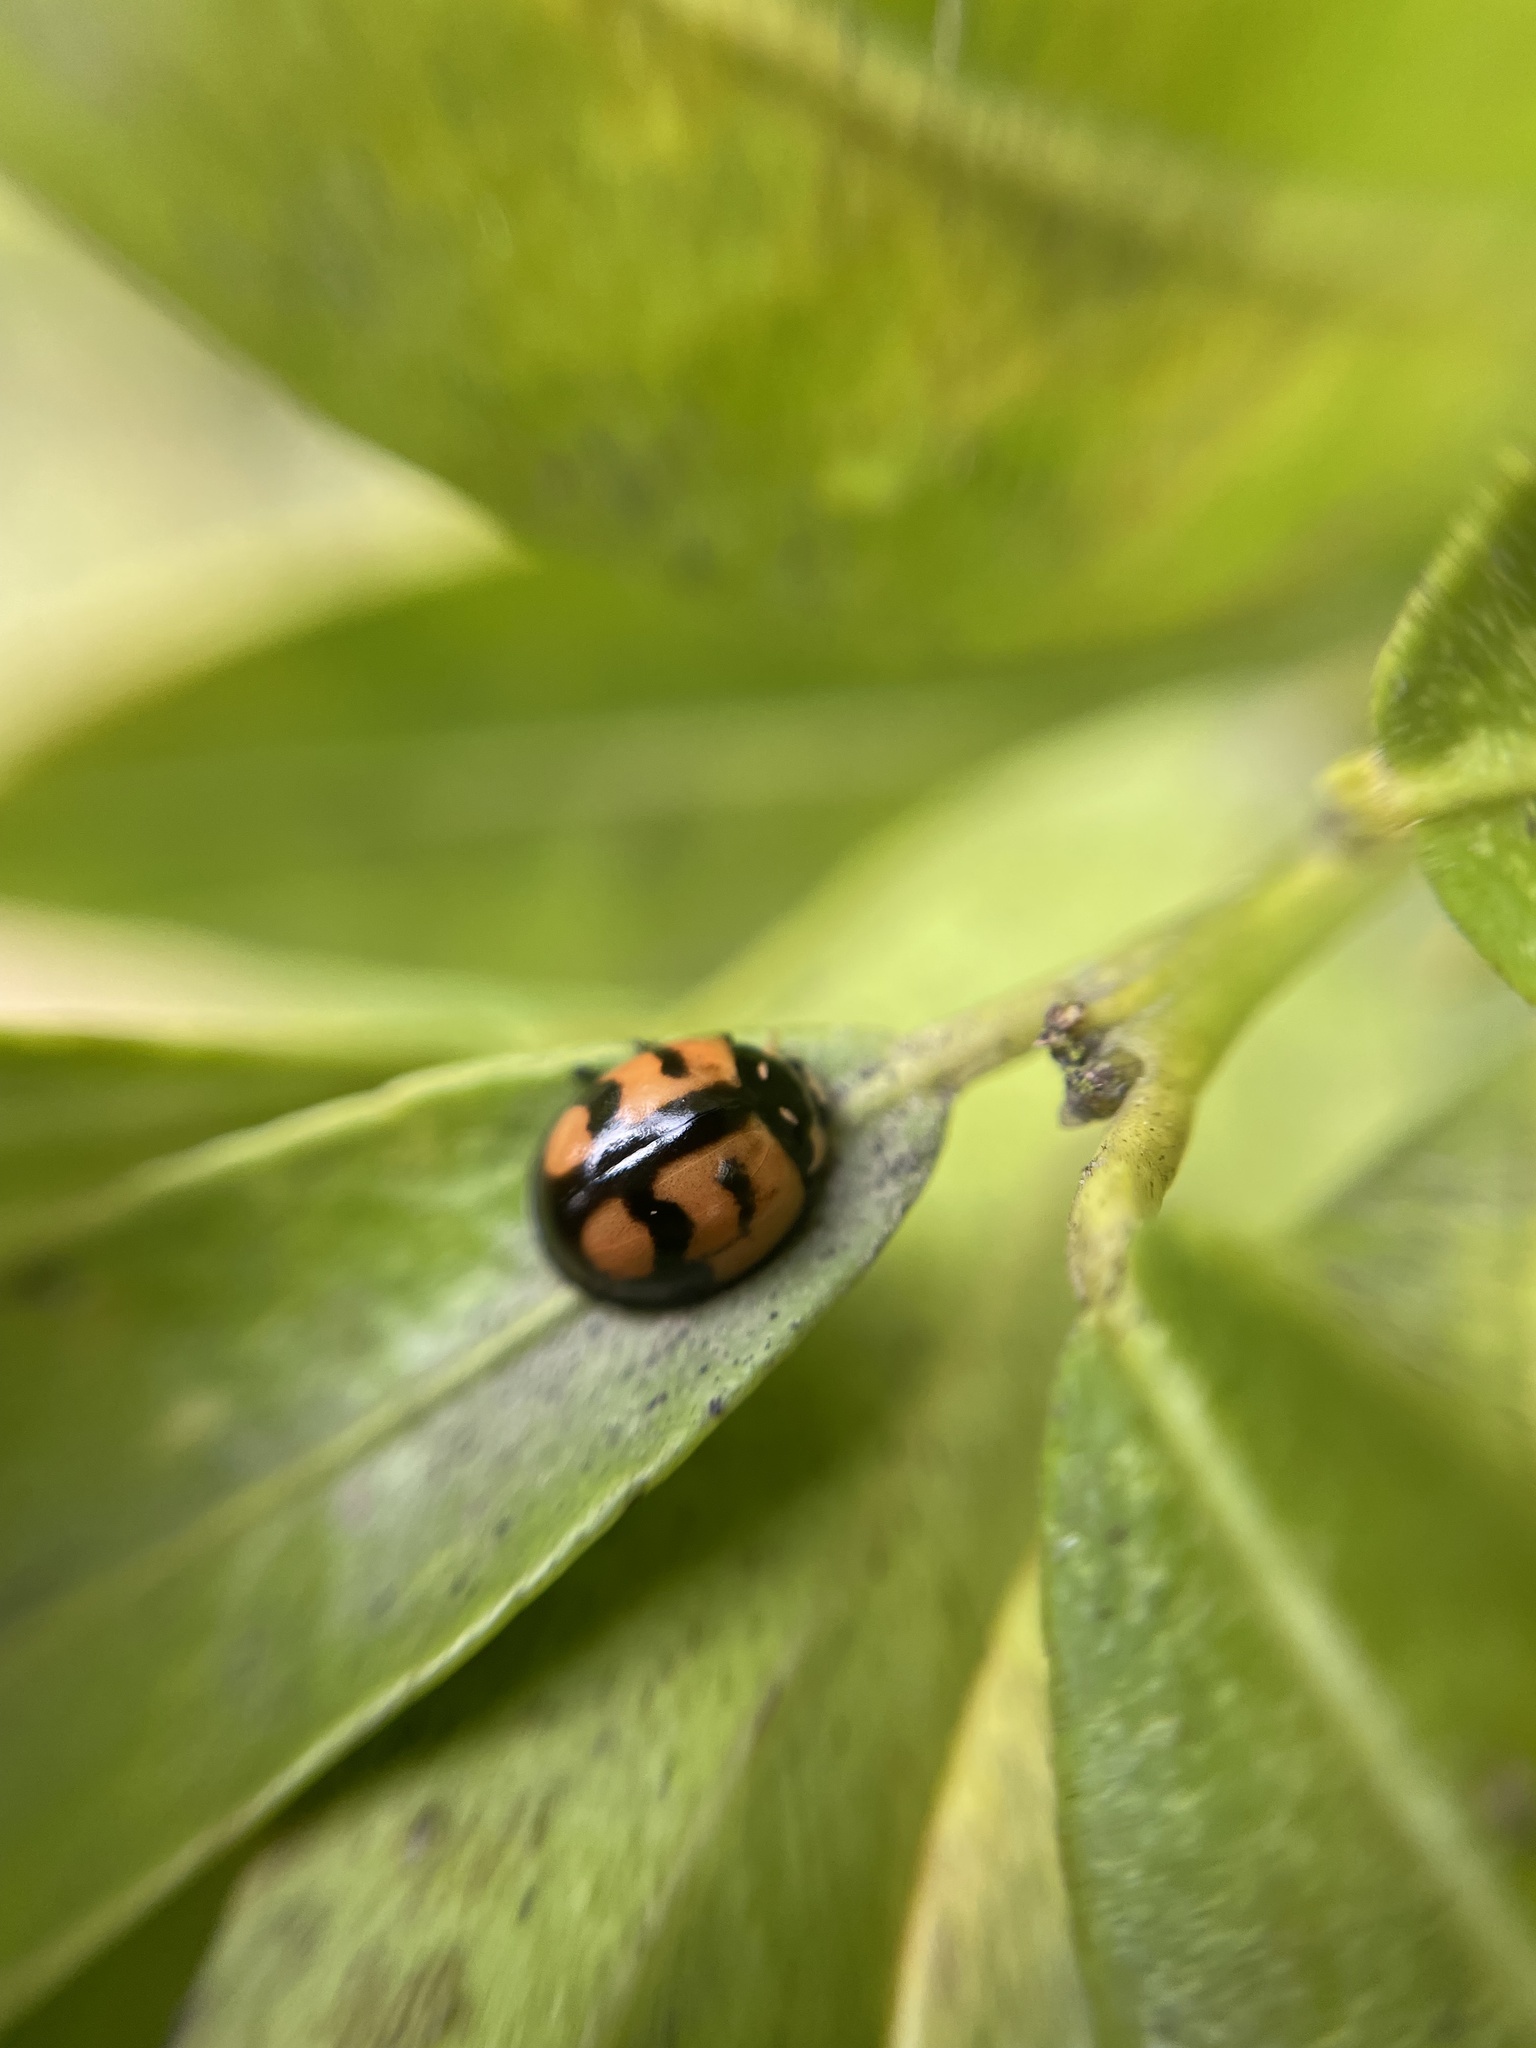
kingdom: Animalia
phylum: Arthropoda
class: Insecta
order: Coleoptera
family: Coccinellidae
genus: Cheilomenes
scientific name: Cheilomenes sexmaculata
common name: Ladybird beetle
